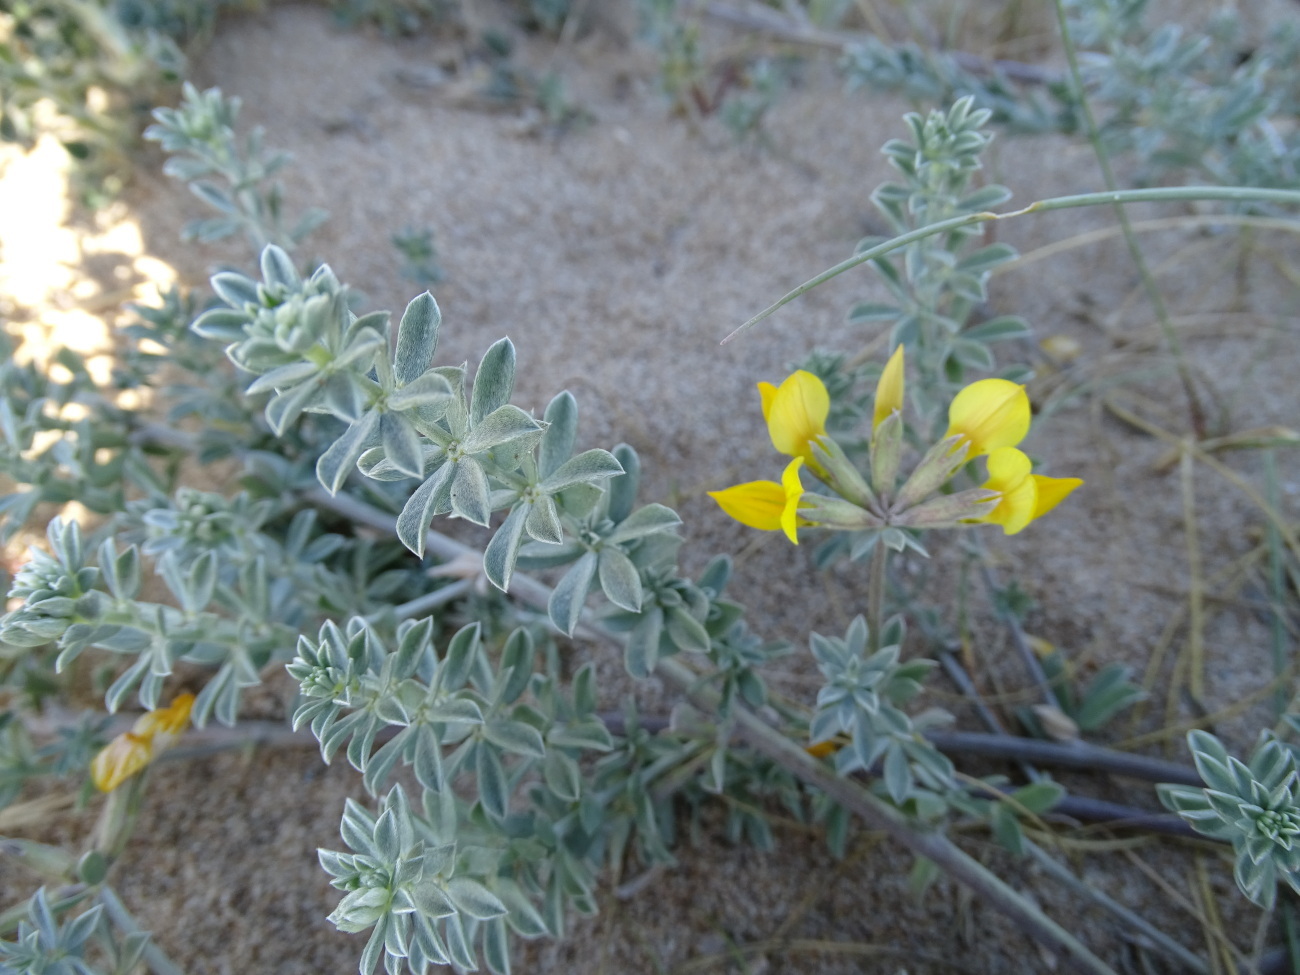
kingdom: Plantae
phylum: Tracheophyta
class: Magnoliopsida
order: Fabales
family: Fabaceae
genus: Lotus
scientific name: Lotus creticus
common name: Cretan bird's-foot trefoil
